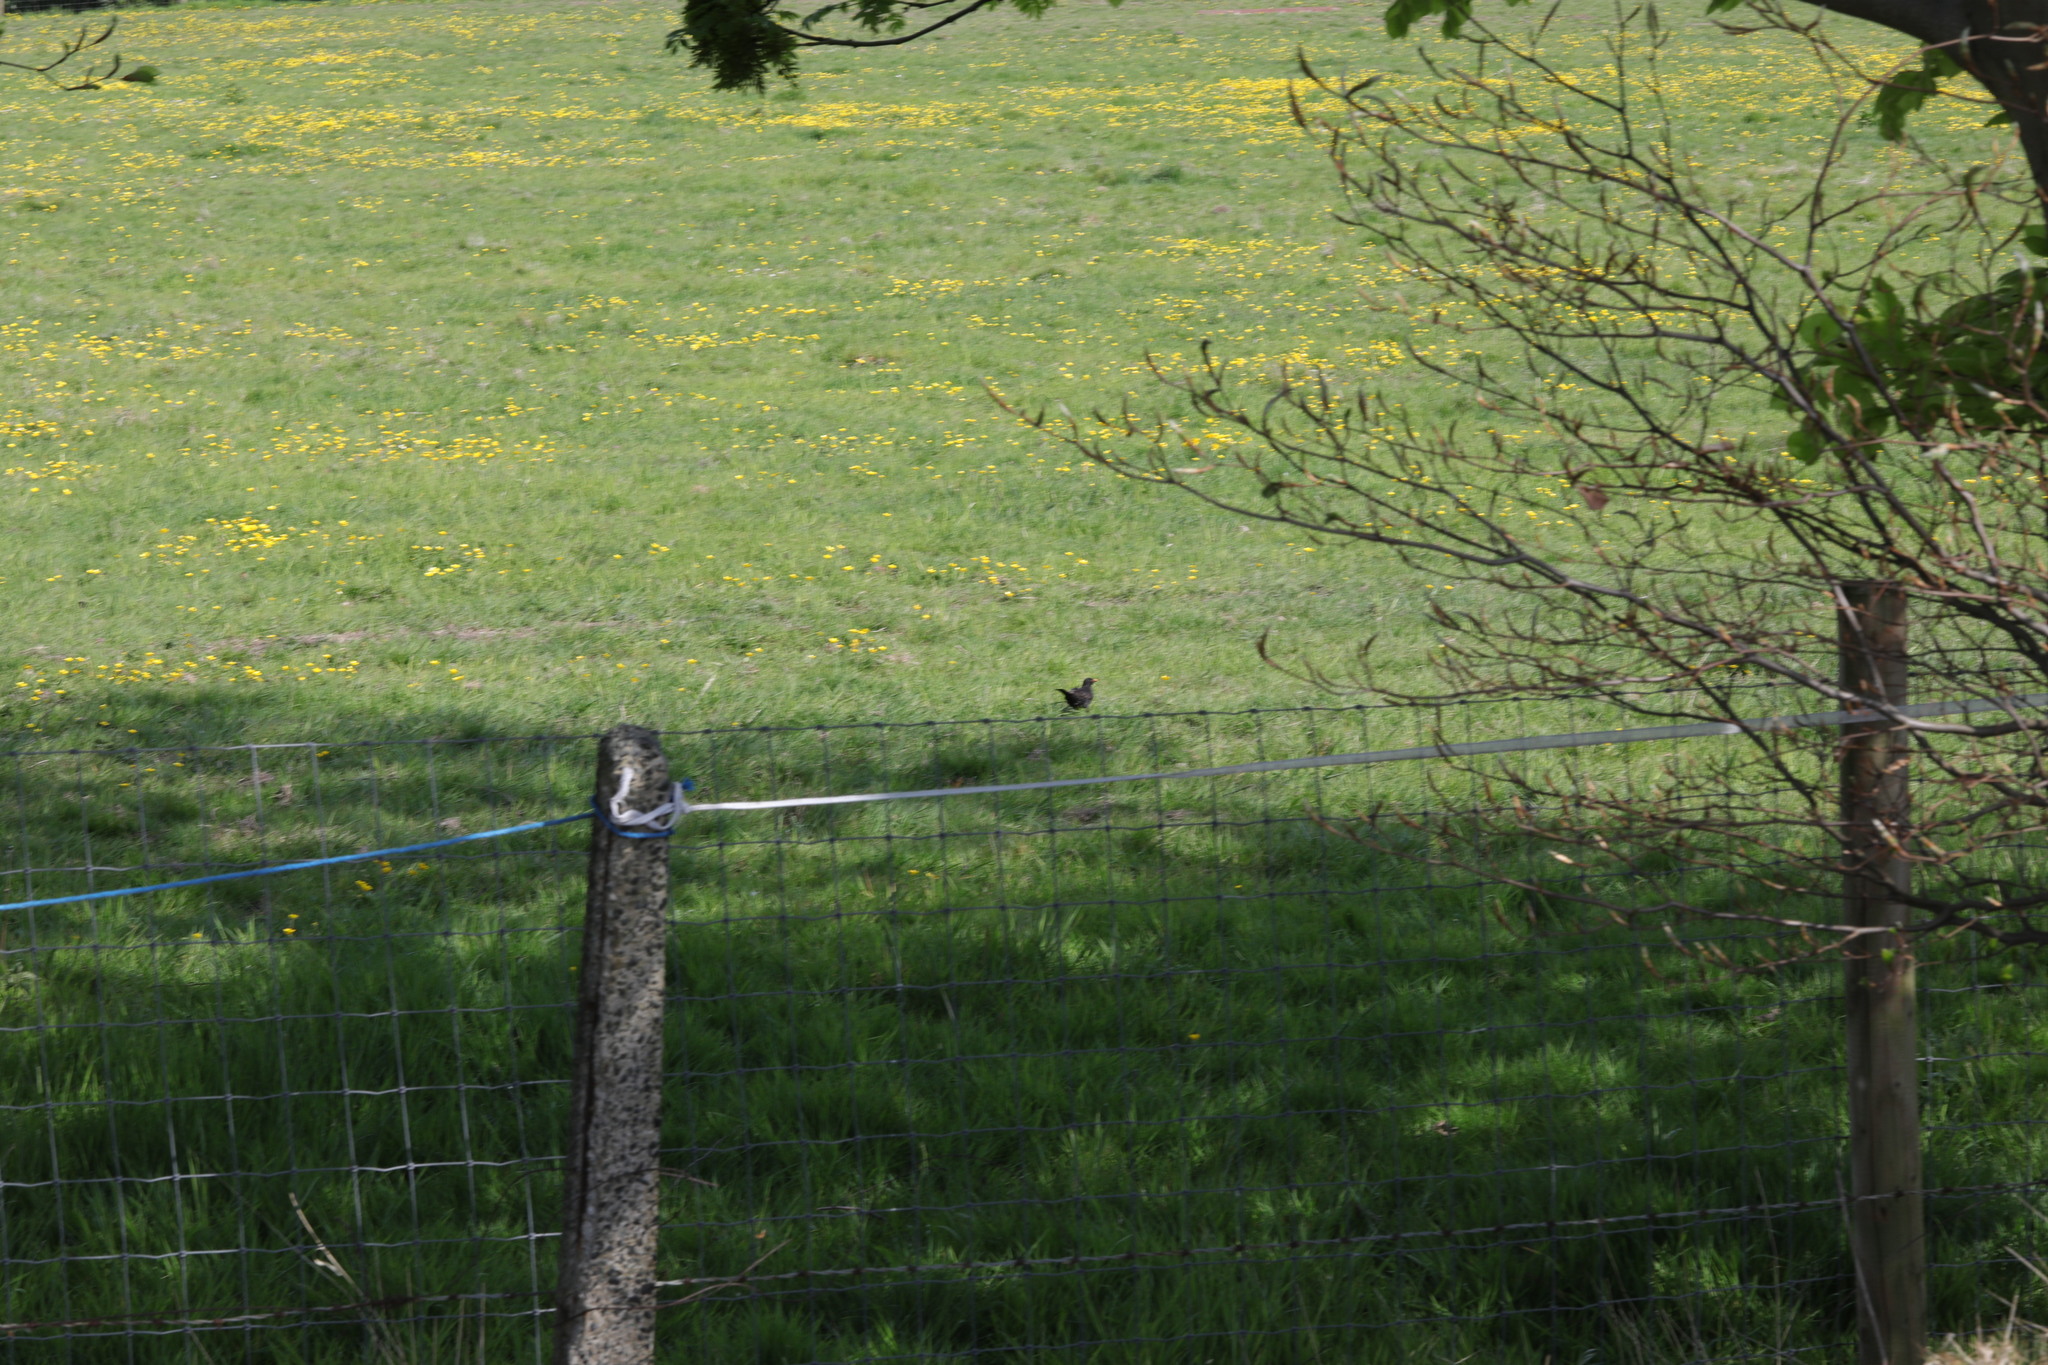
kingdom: Animalia
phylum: Chordata
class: Aves
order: Passeriformes
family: Turdidae
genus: Turdus
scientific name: Turdus merula
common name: Common blackbird
